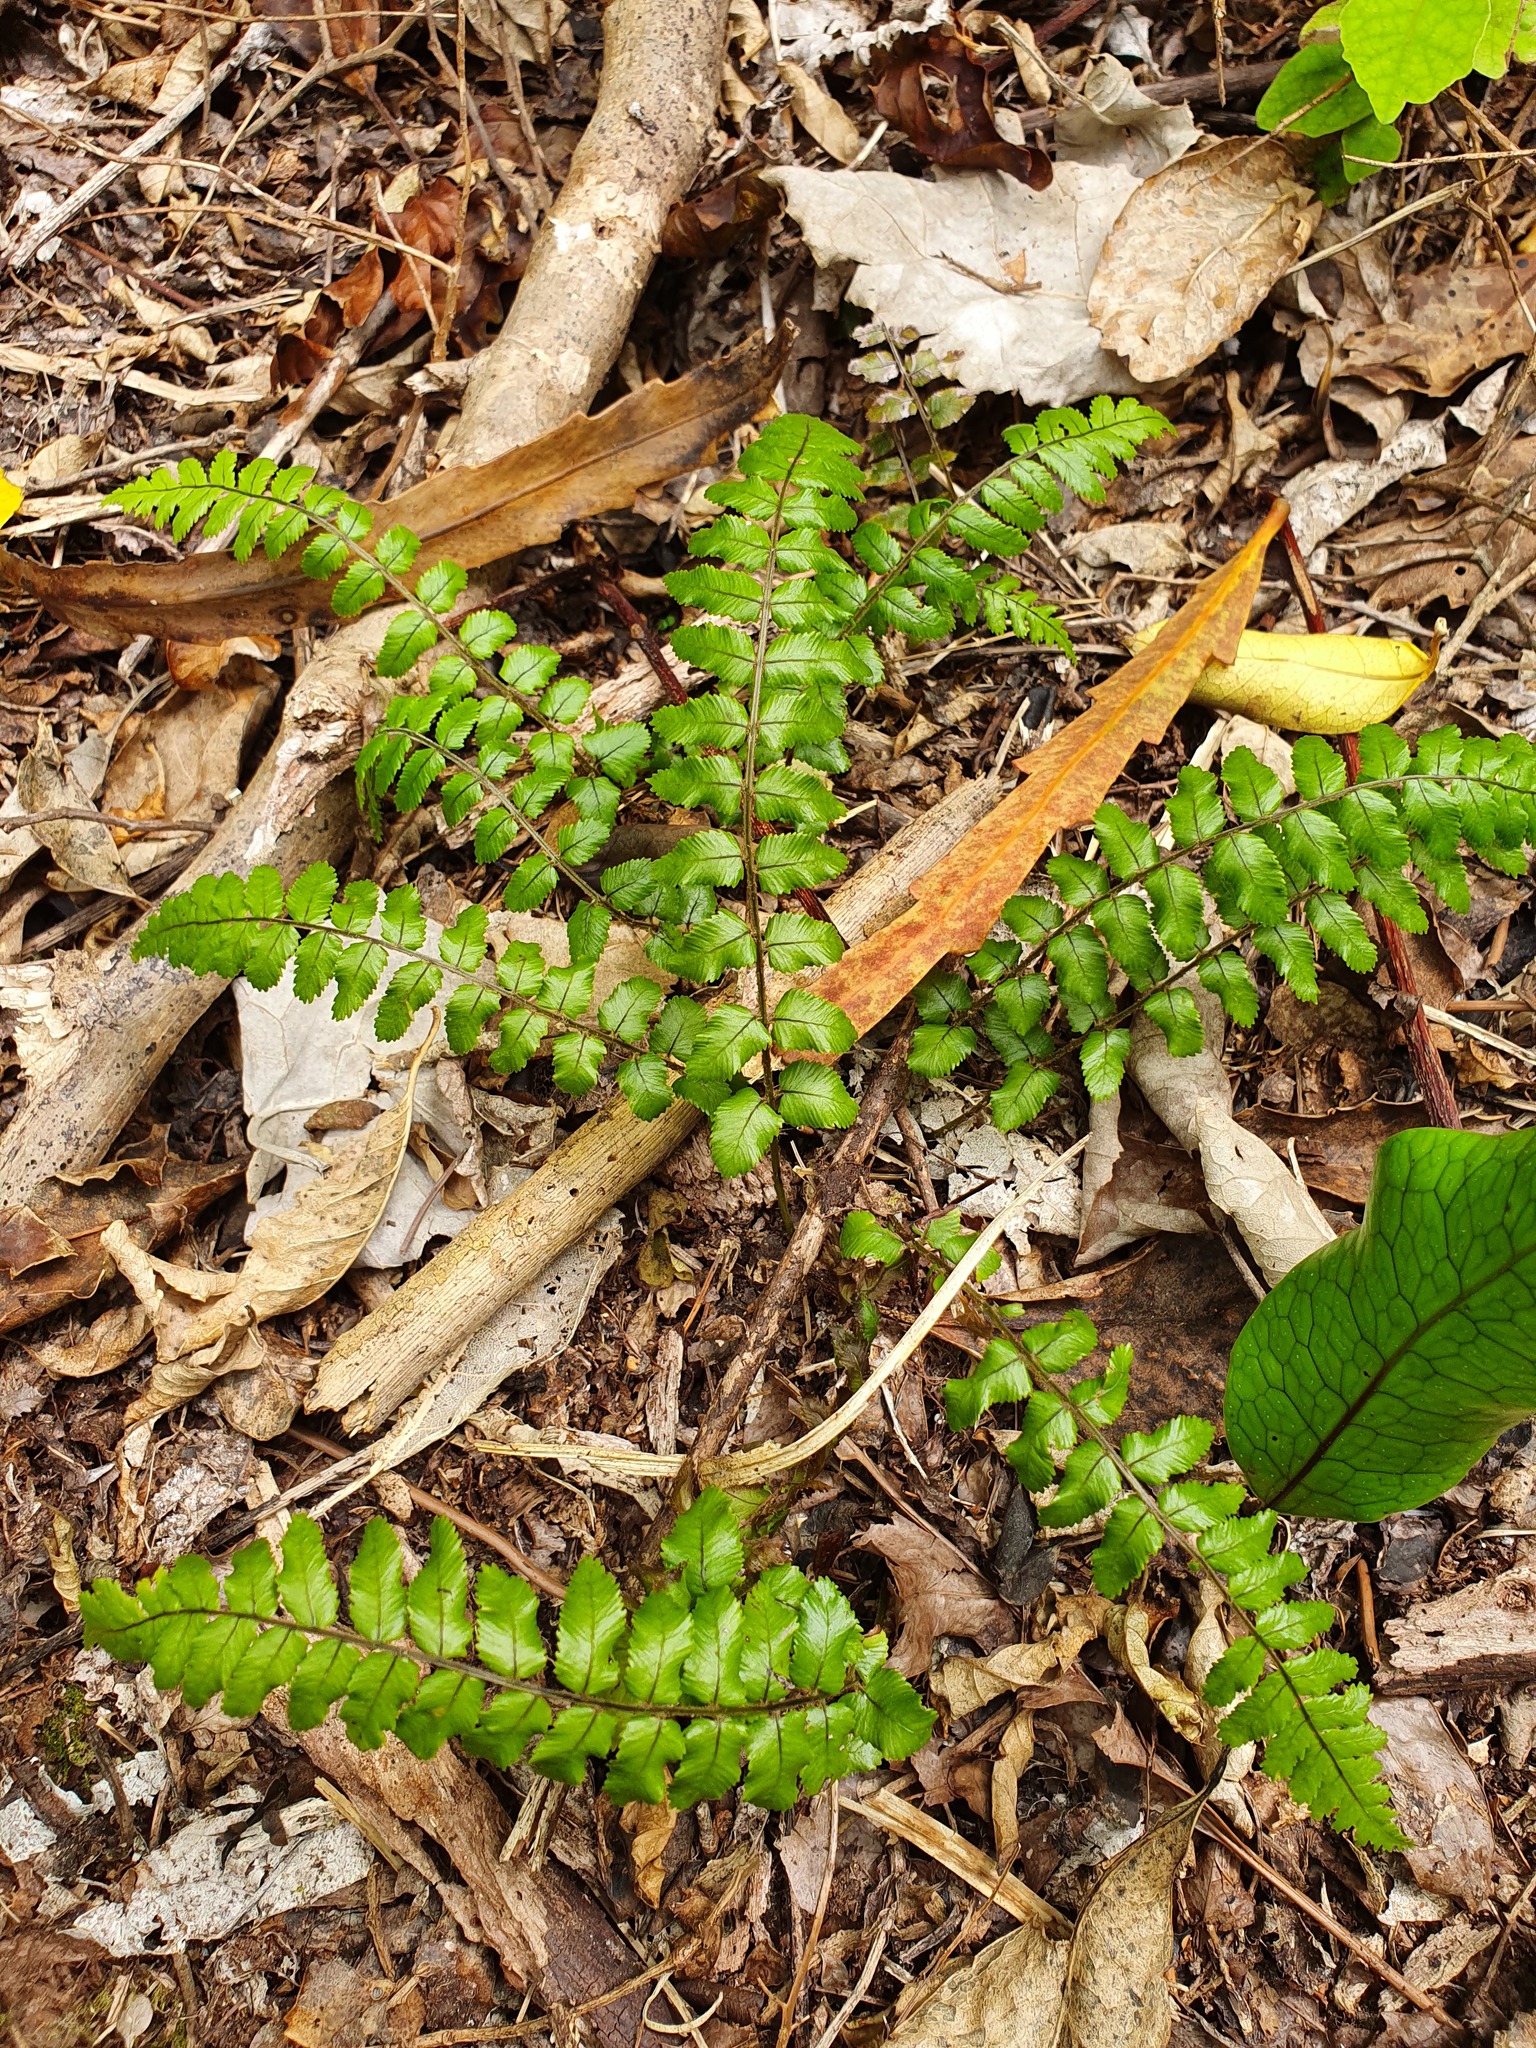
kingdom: Plantae
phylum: Tracheophyta
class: Polypodiopsida
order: Polypodiales
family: Blechnaceae
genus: Icarus
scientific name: Icarus filiformis
